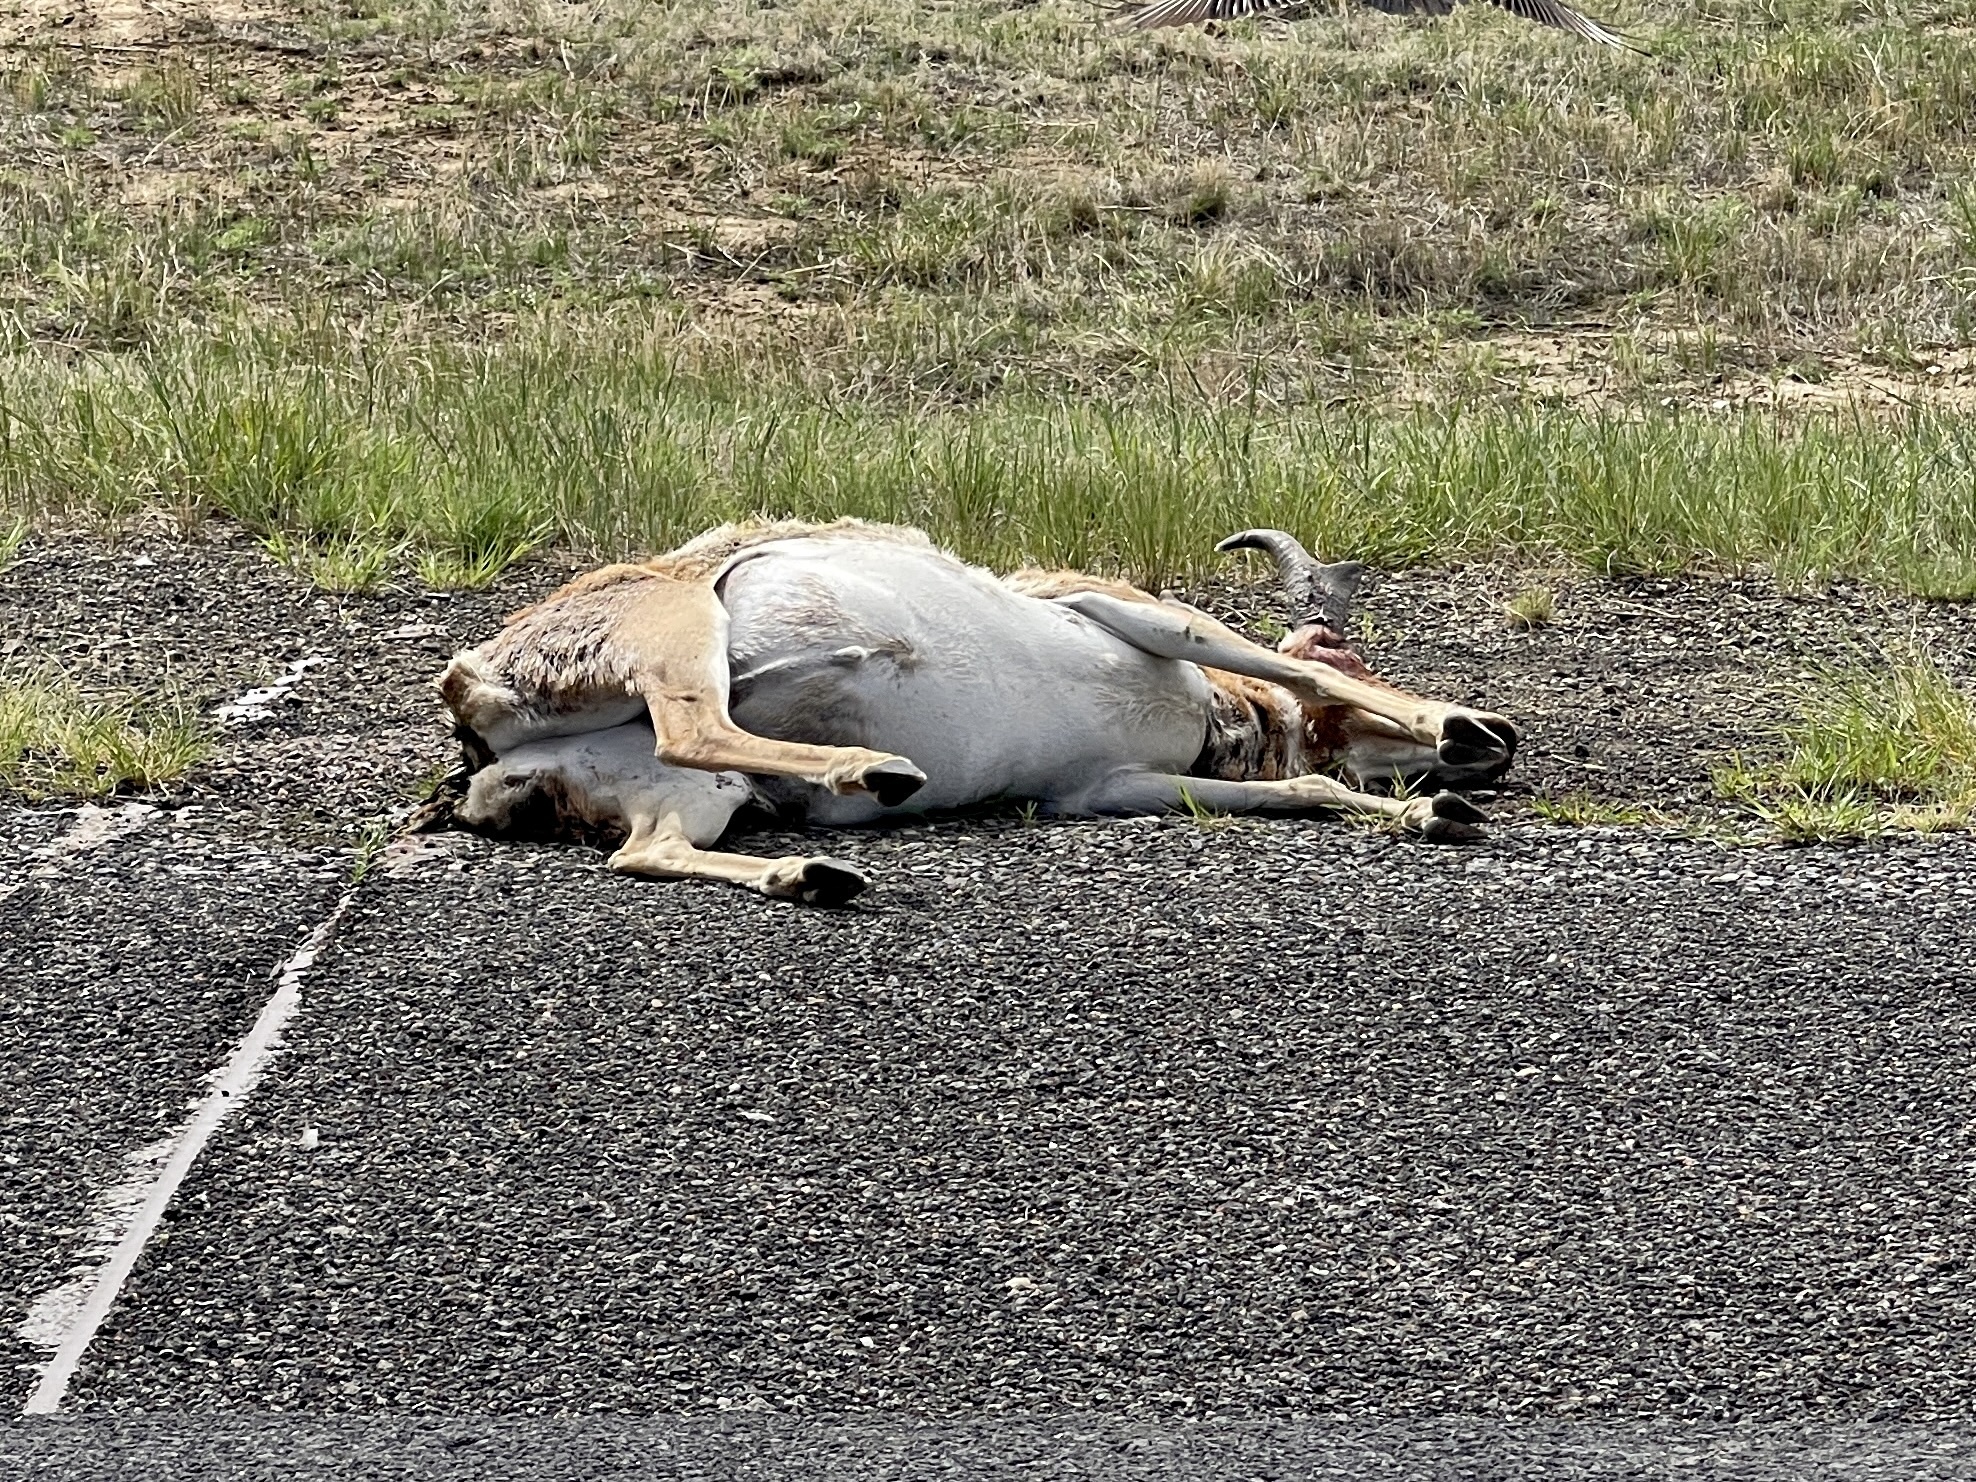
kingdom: Animalia
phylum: Chordata
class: Mammalia
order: Artiodactyla
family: Antilocapridae
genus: Antilocapra
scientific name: Antilocapra americana
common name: Pronghorn
